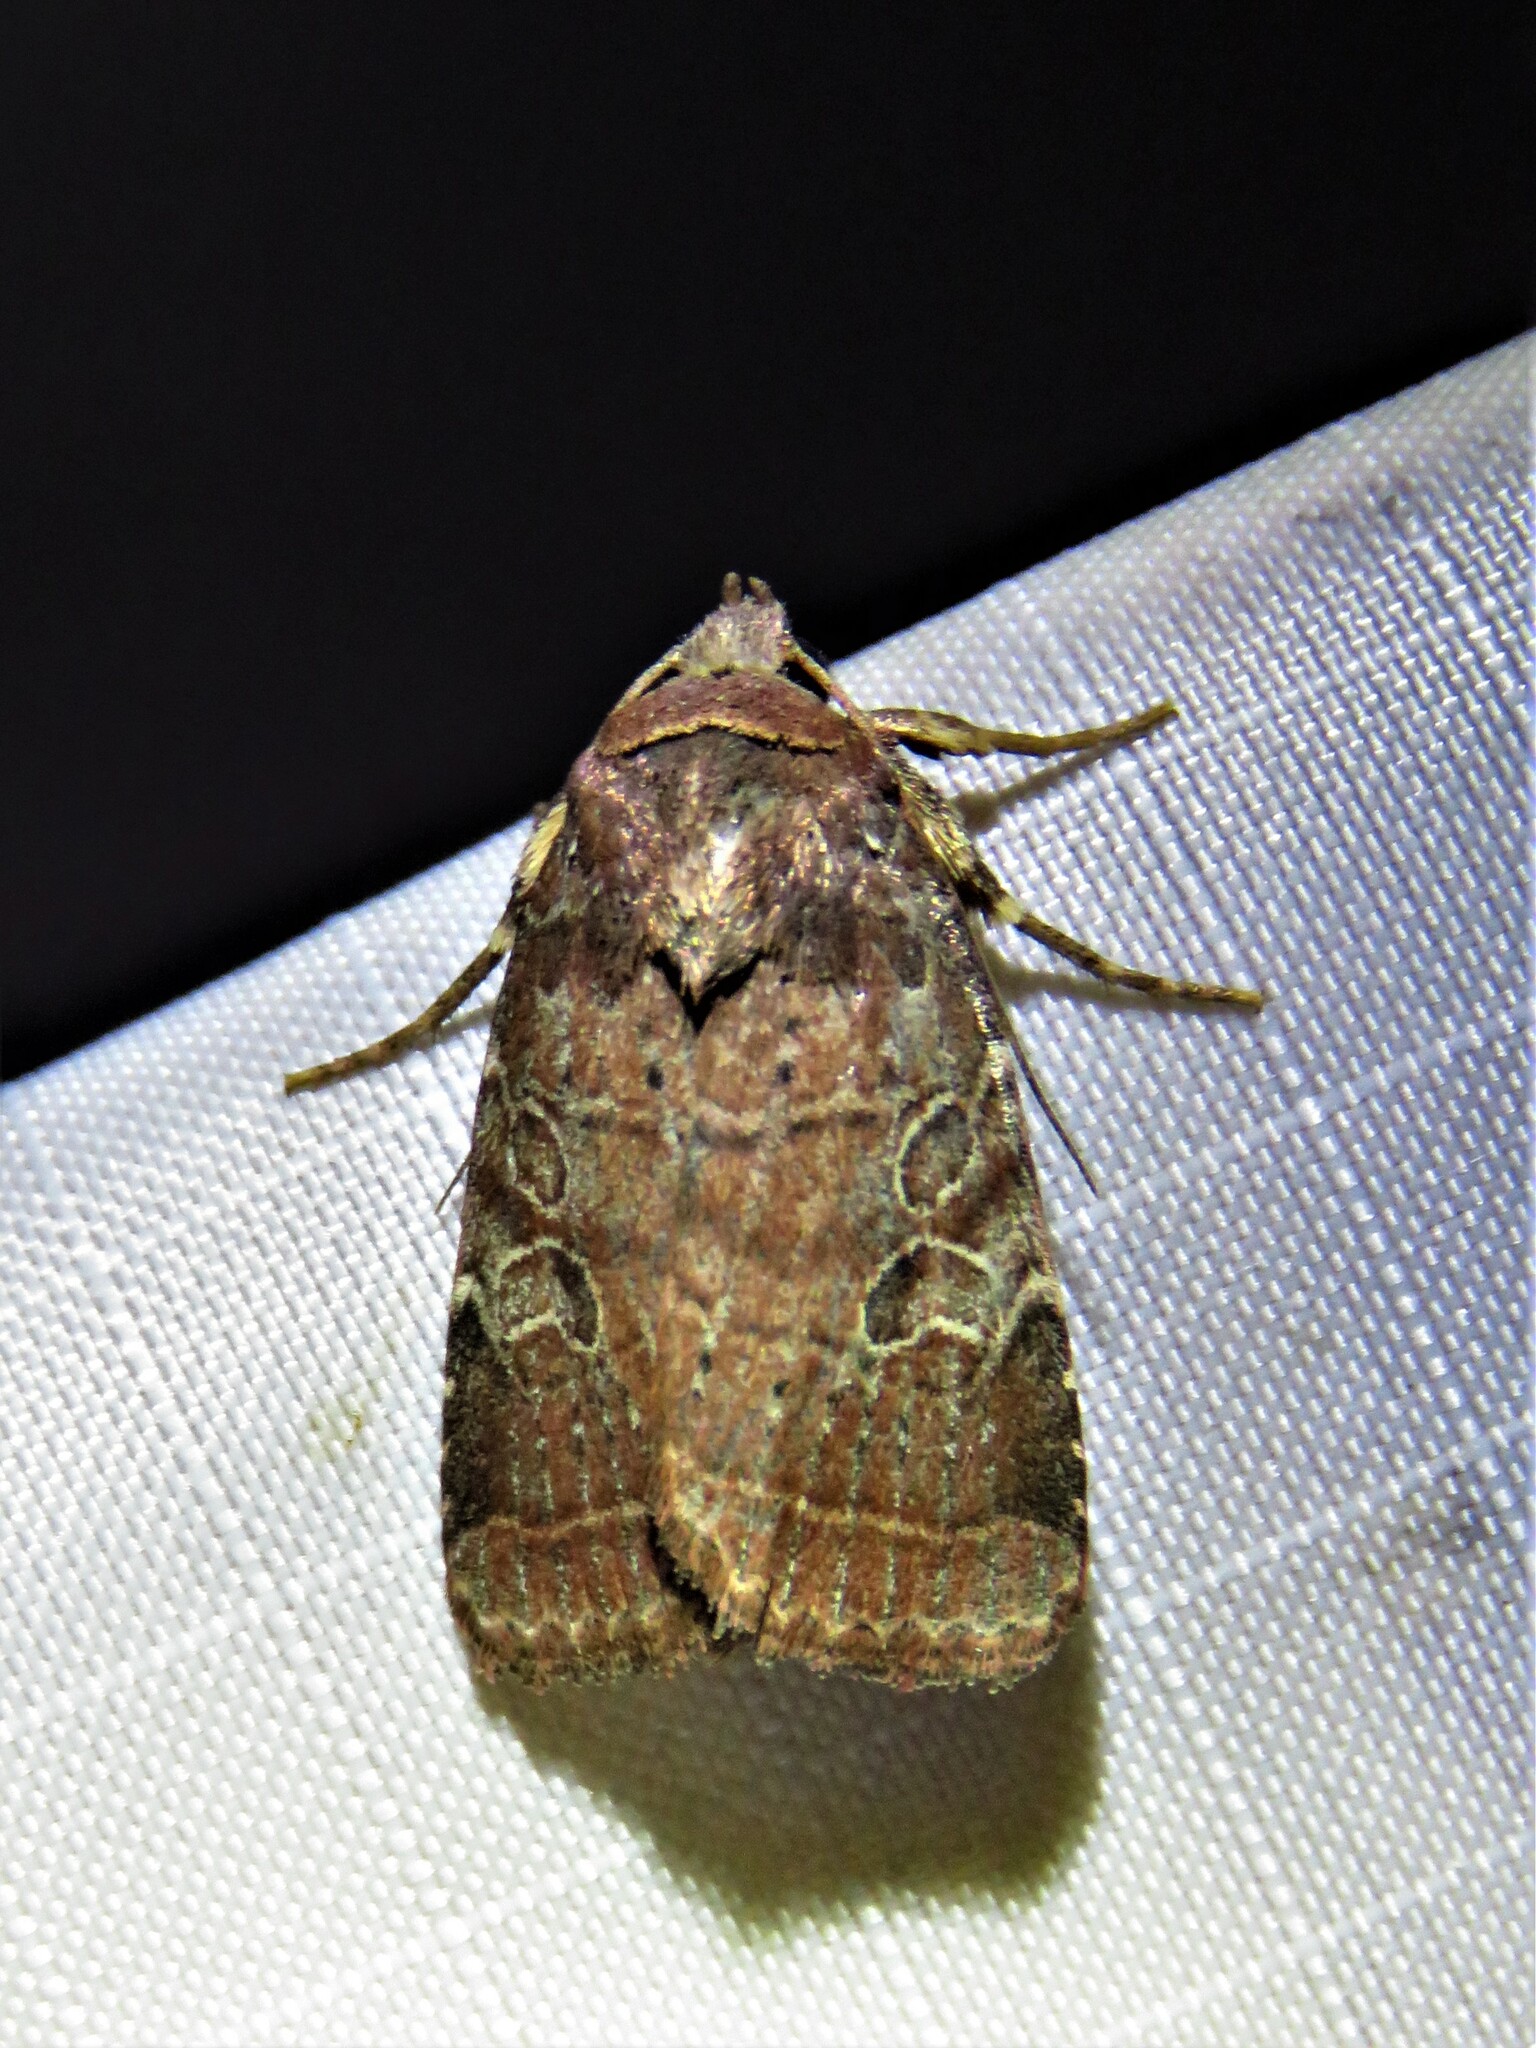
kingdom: Animalia
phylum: Arthropoda
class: Insecta
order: Lepidoptera
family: Noctuidae
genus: Orthodes
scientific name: Orthodes furtiva
